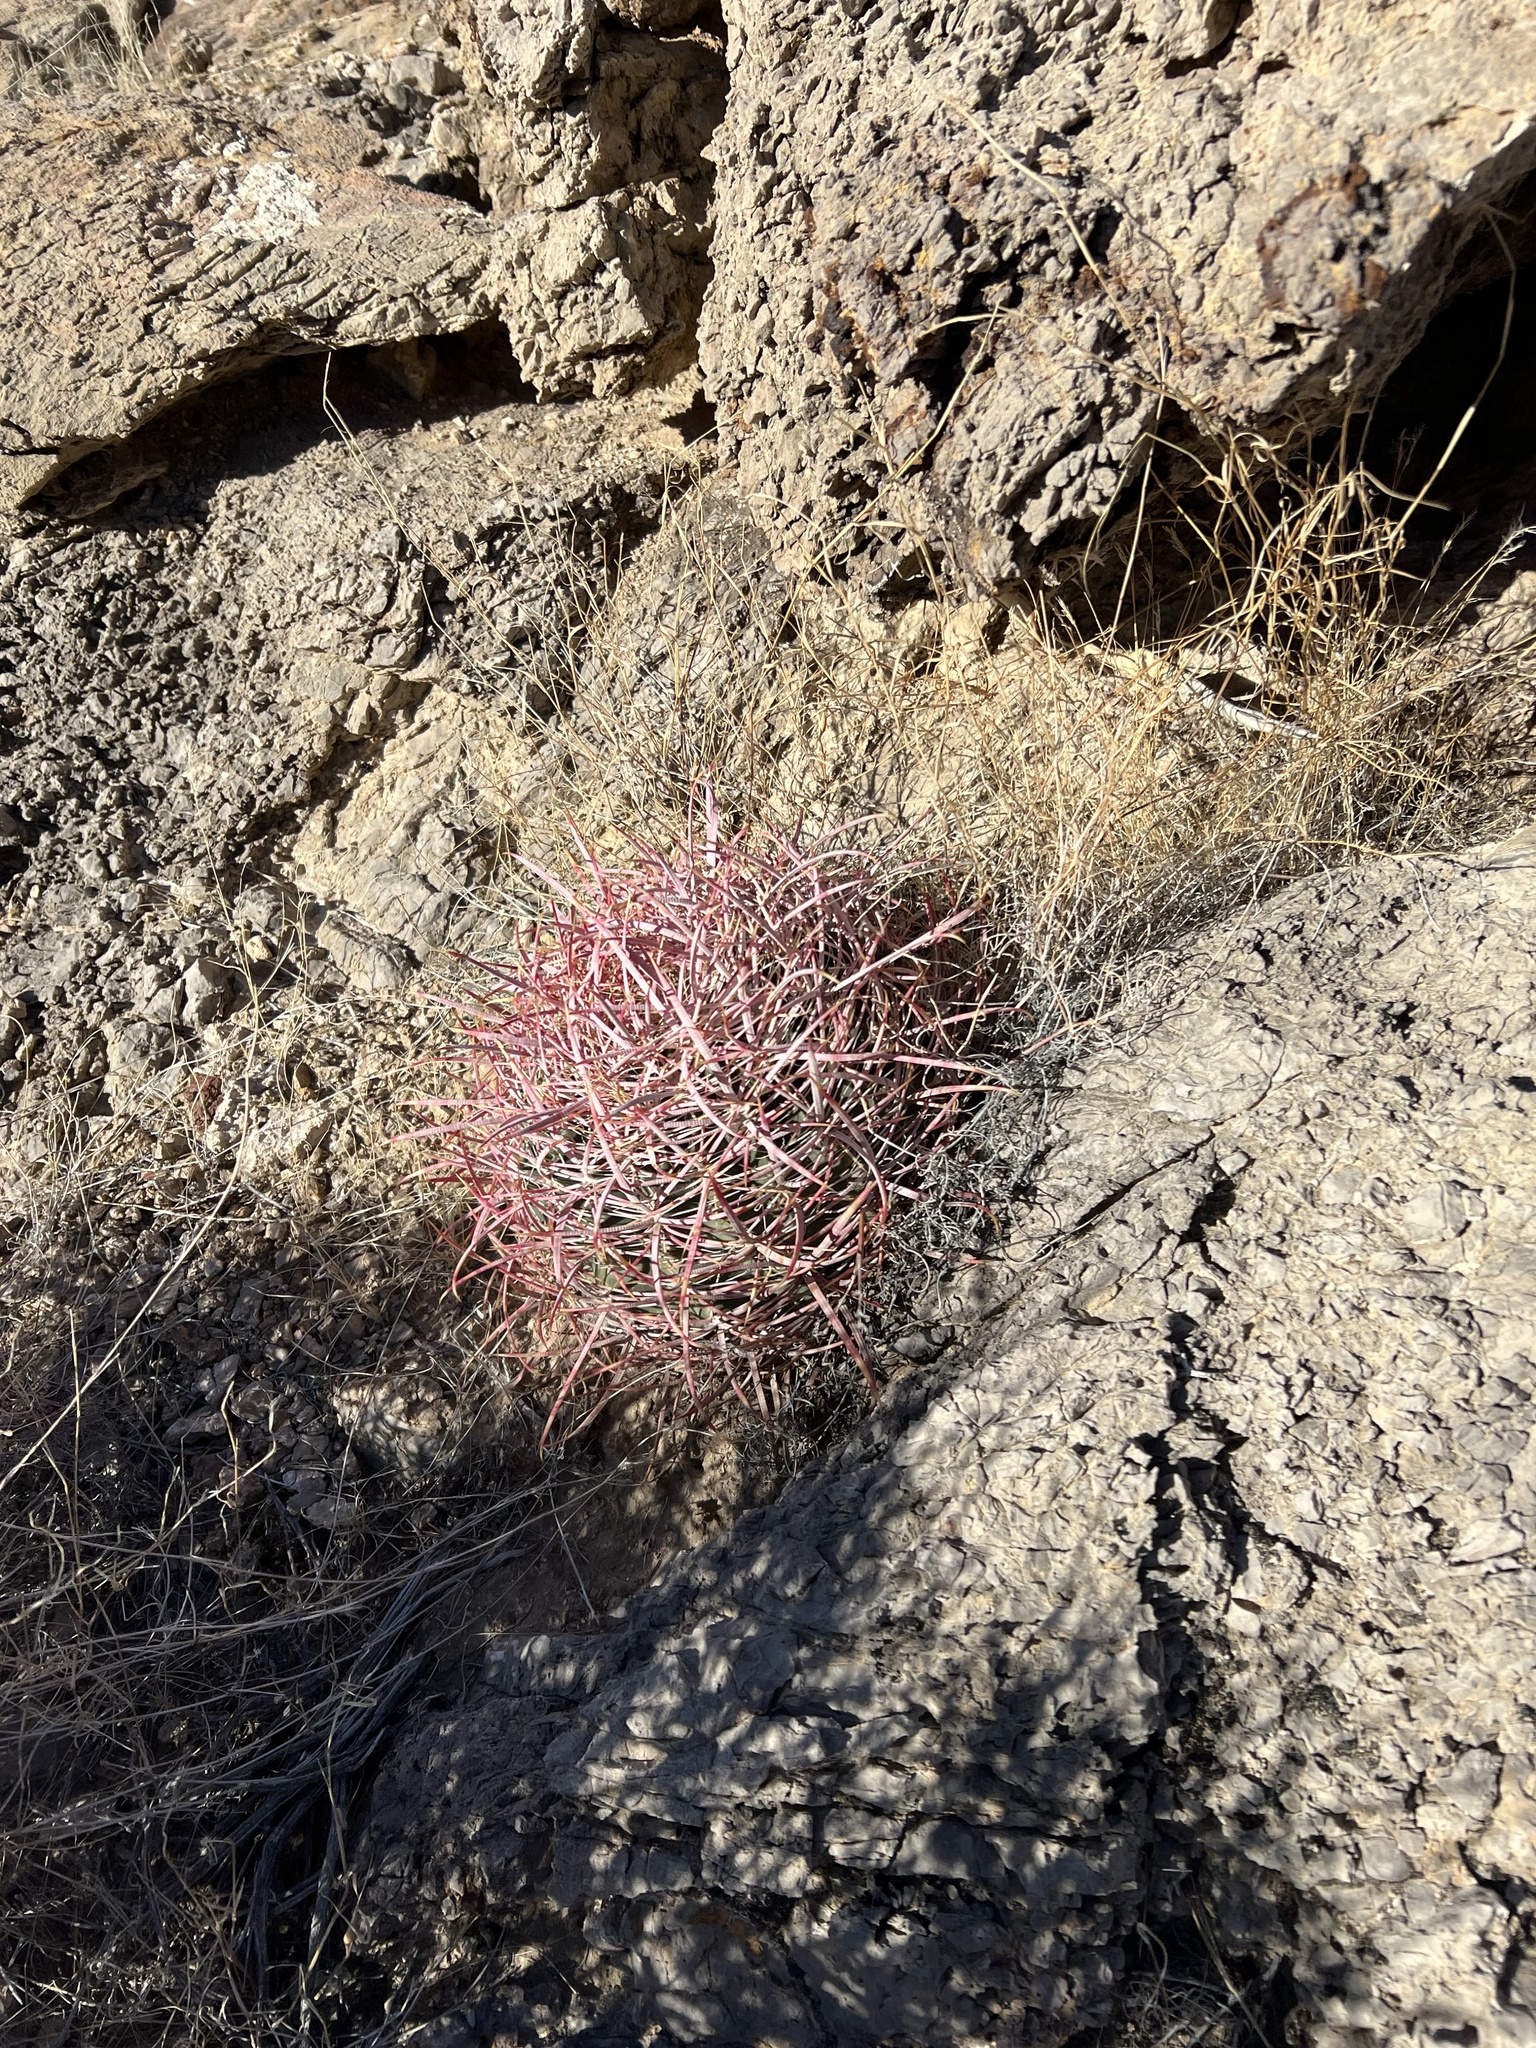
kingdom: Plantae
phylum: Tracheophyta
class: Magnoliopsida
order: Caryophyllales
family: Cactaceae
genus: Ferocactus
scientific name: Ferocactus cylindraceus
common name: California barrel cactus
